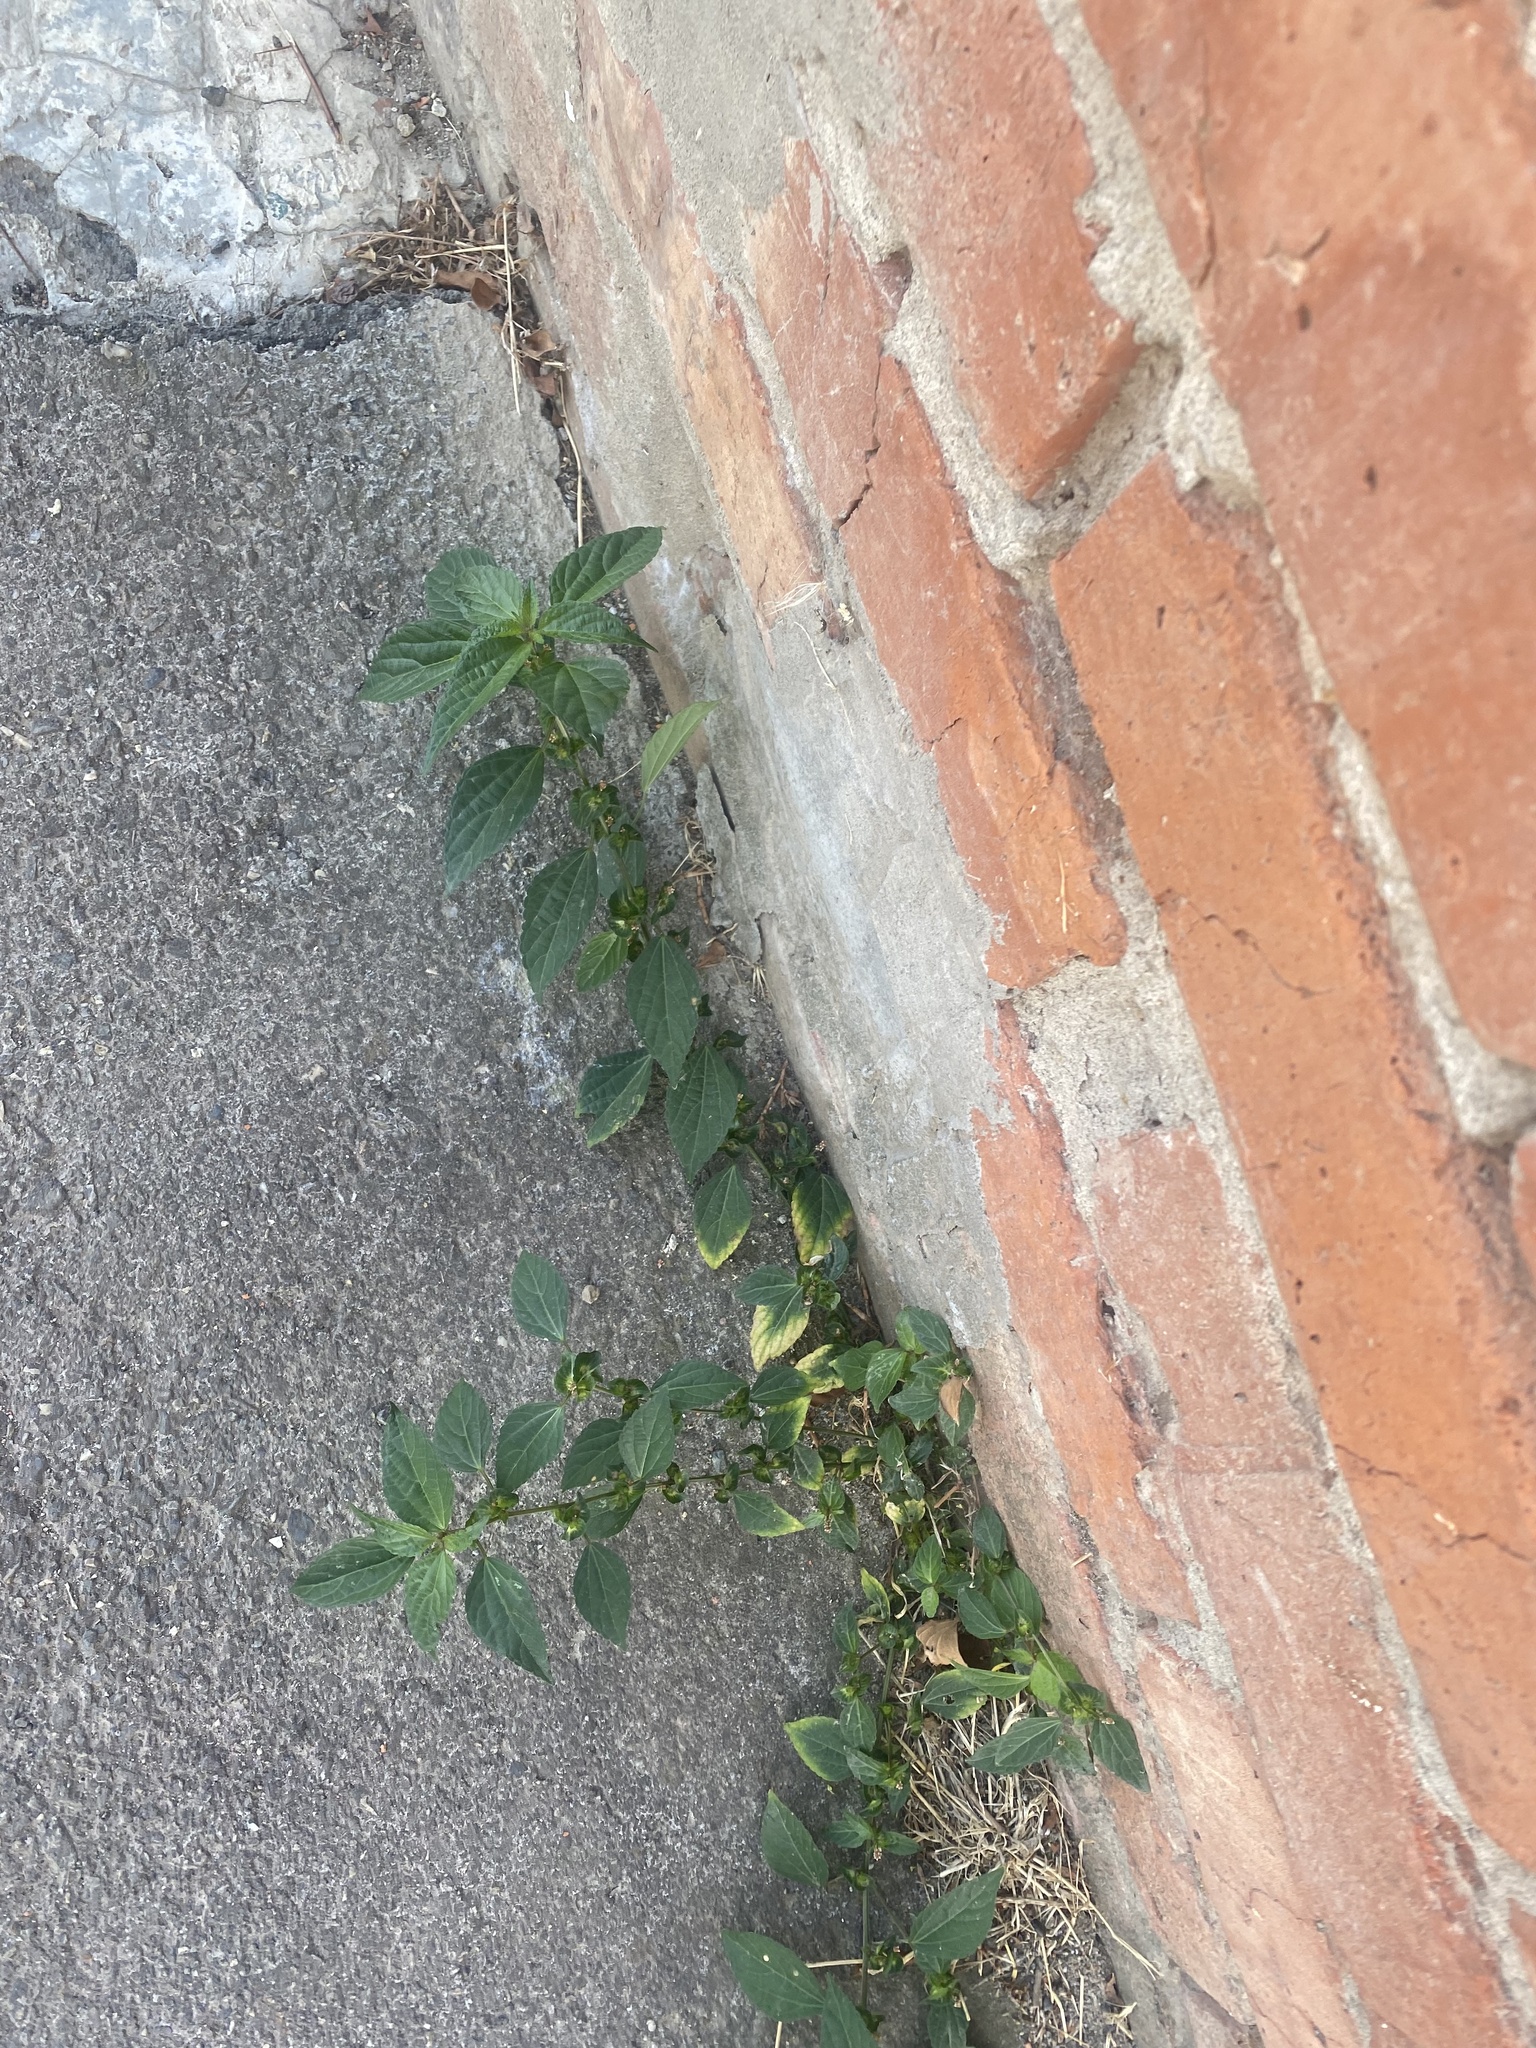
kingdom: Plantae
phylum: Tracheophyta
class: Magnoliopsida
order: Malpighiales
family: Euphorbiaceae
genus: Acalypha
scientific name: Acalypha australis
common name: Asian copperleaf
